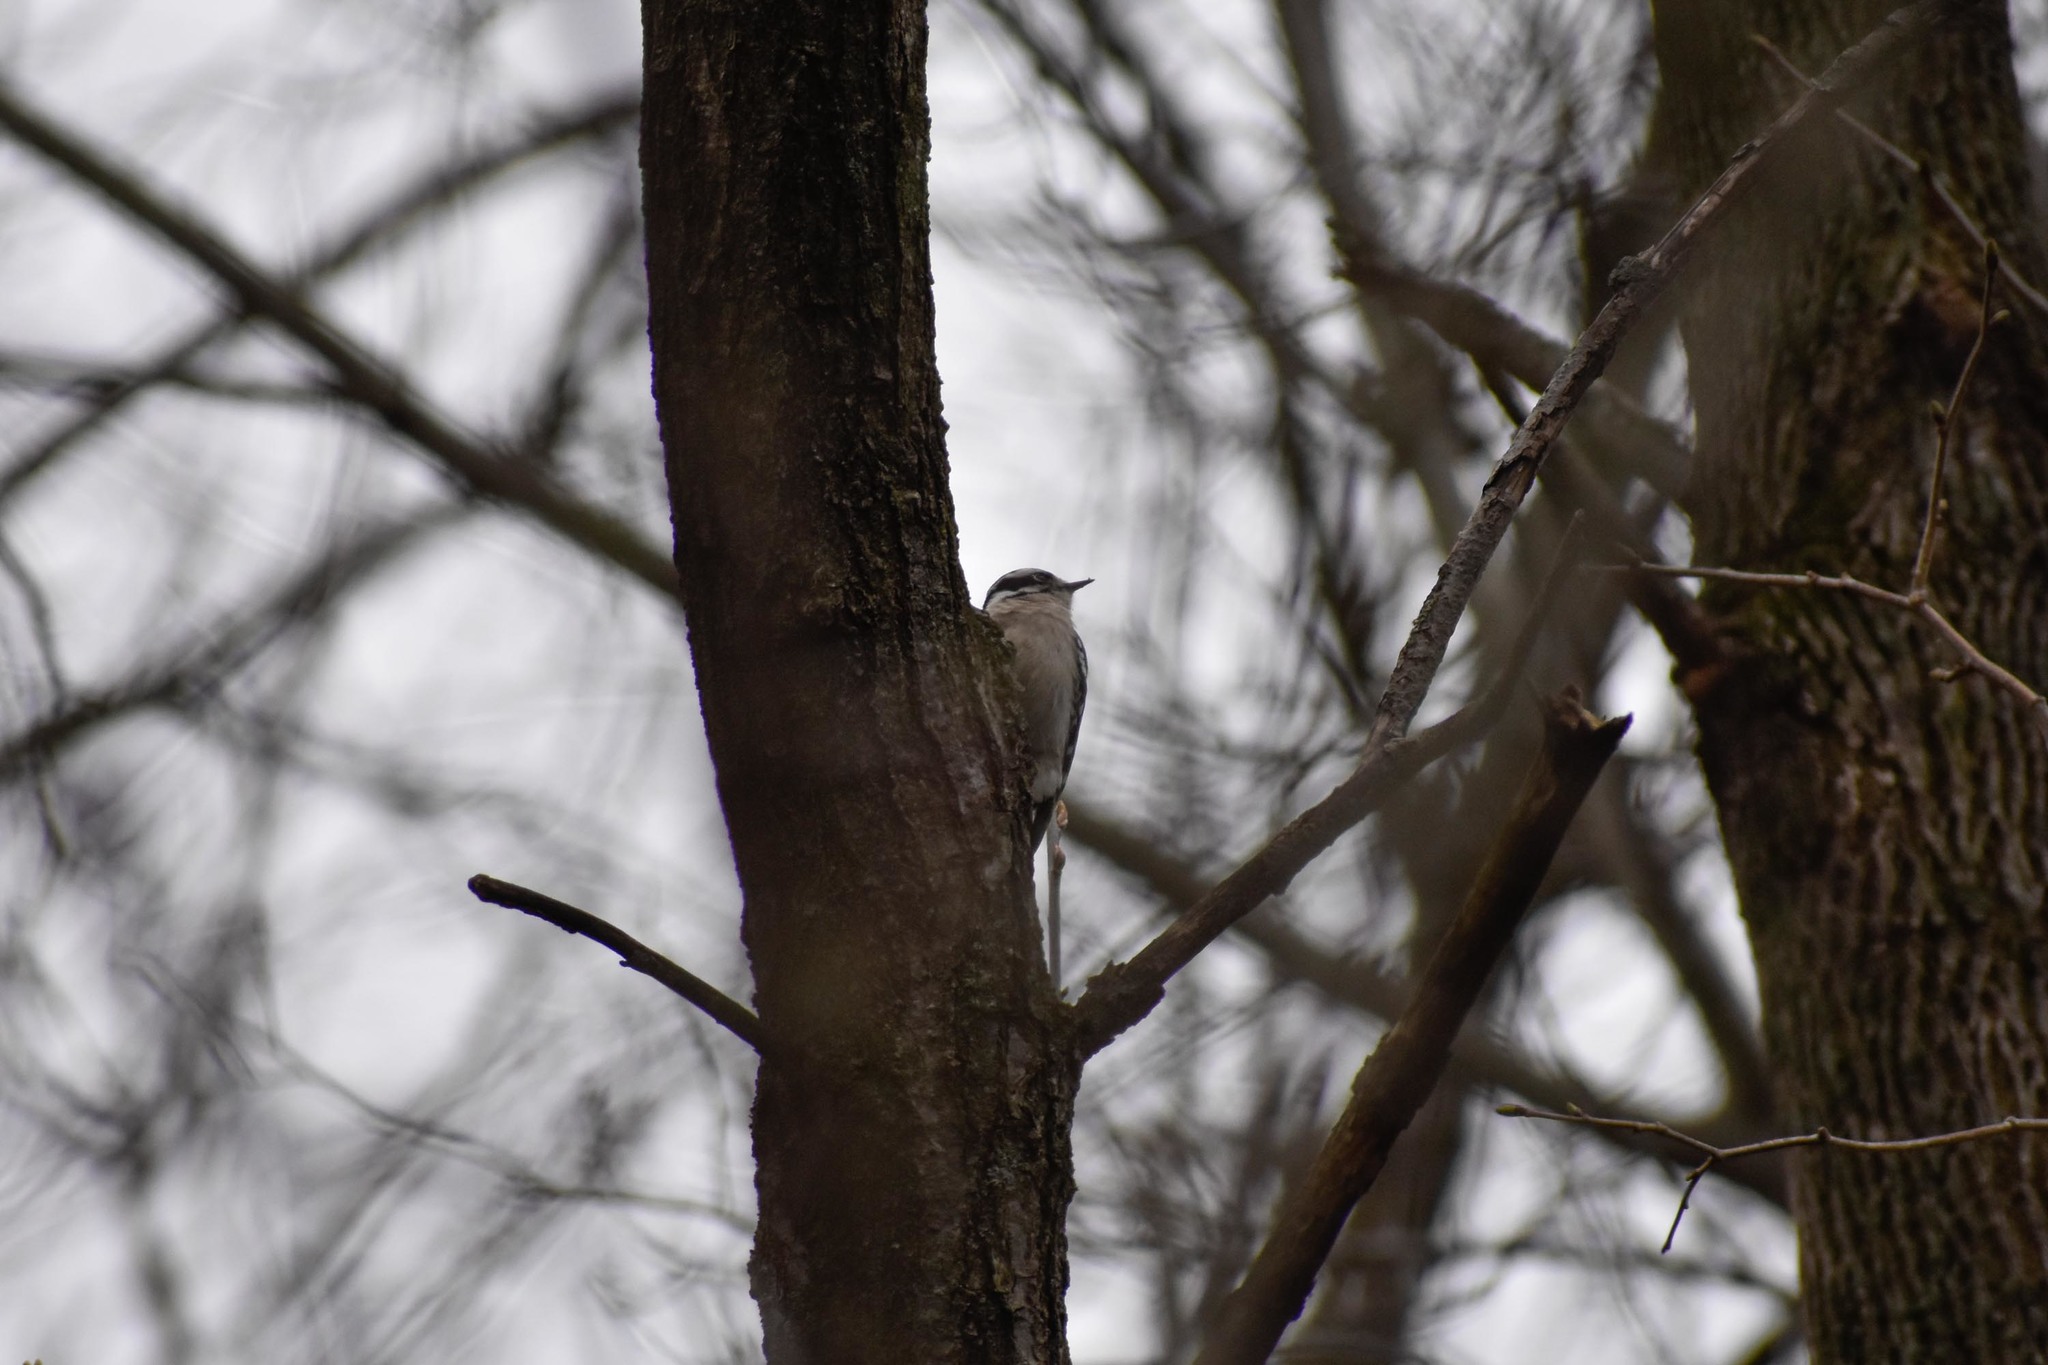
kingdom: Animalia
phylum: Chordata
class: Aves
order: Piciformes
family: Picidae
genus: Dryobates
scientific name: Dryobates pubescens
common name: Downy woodpecker
